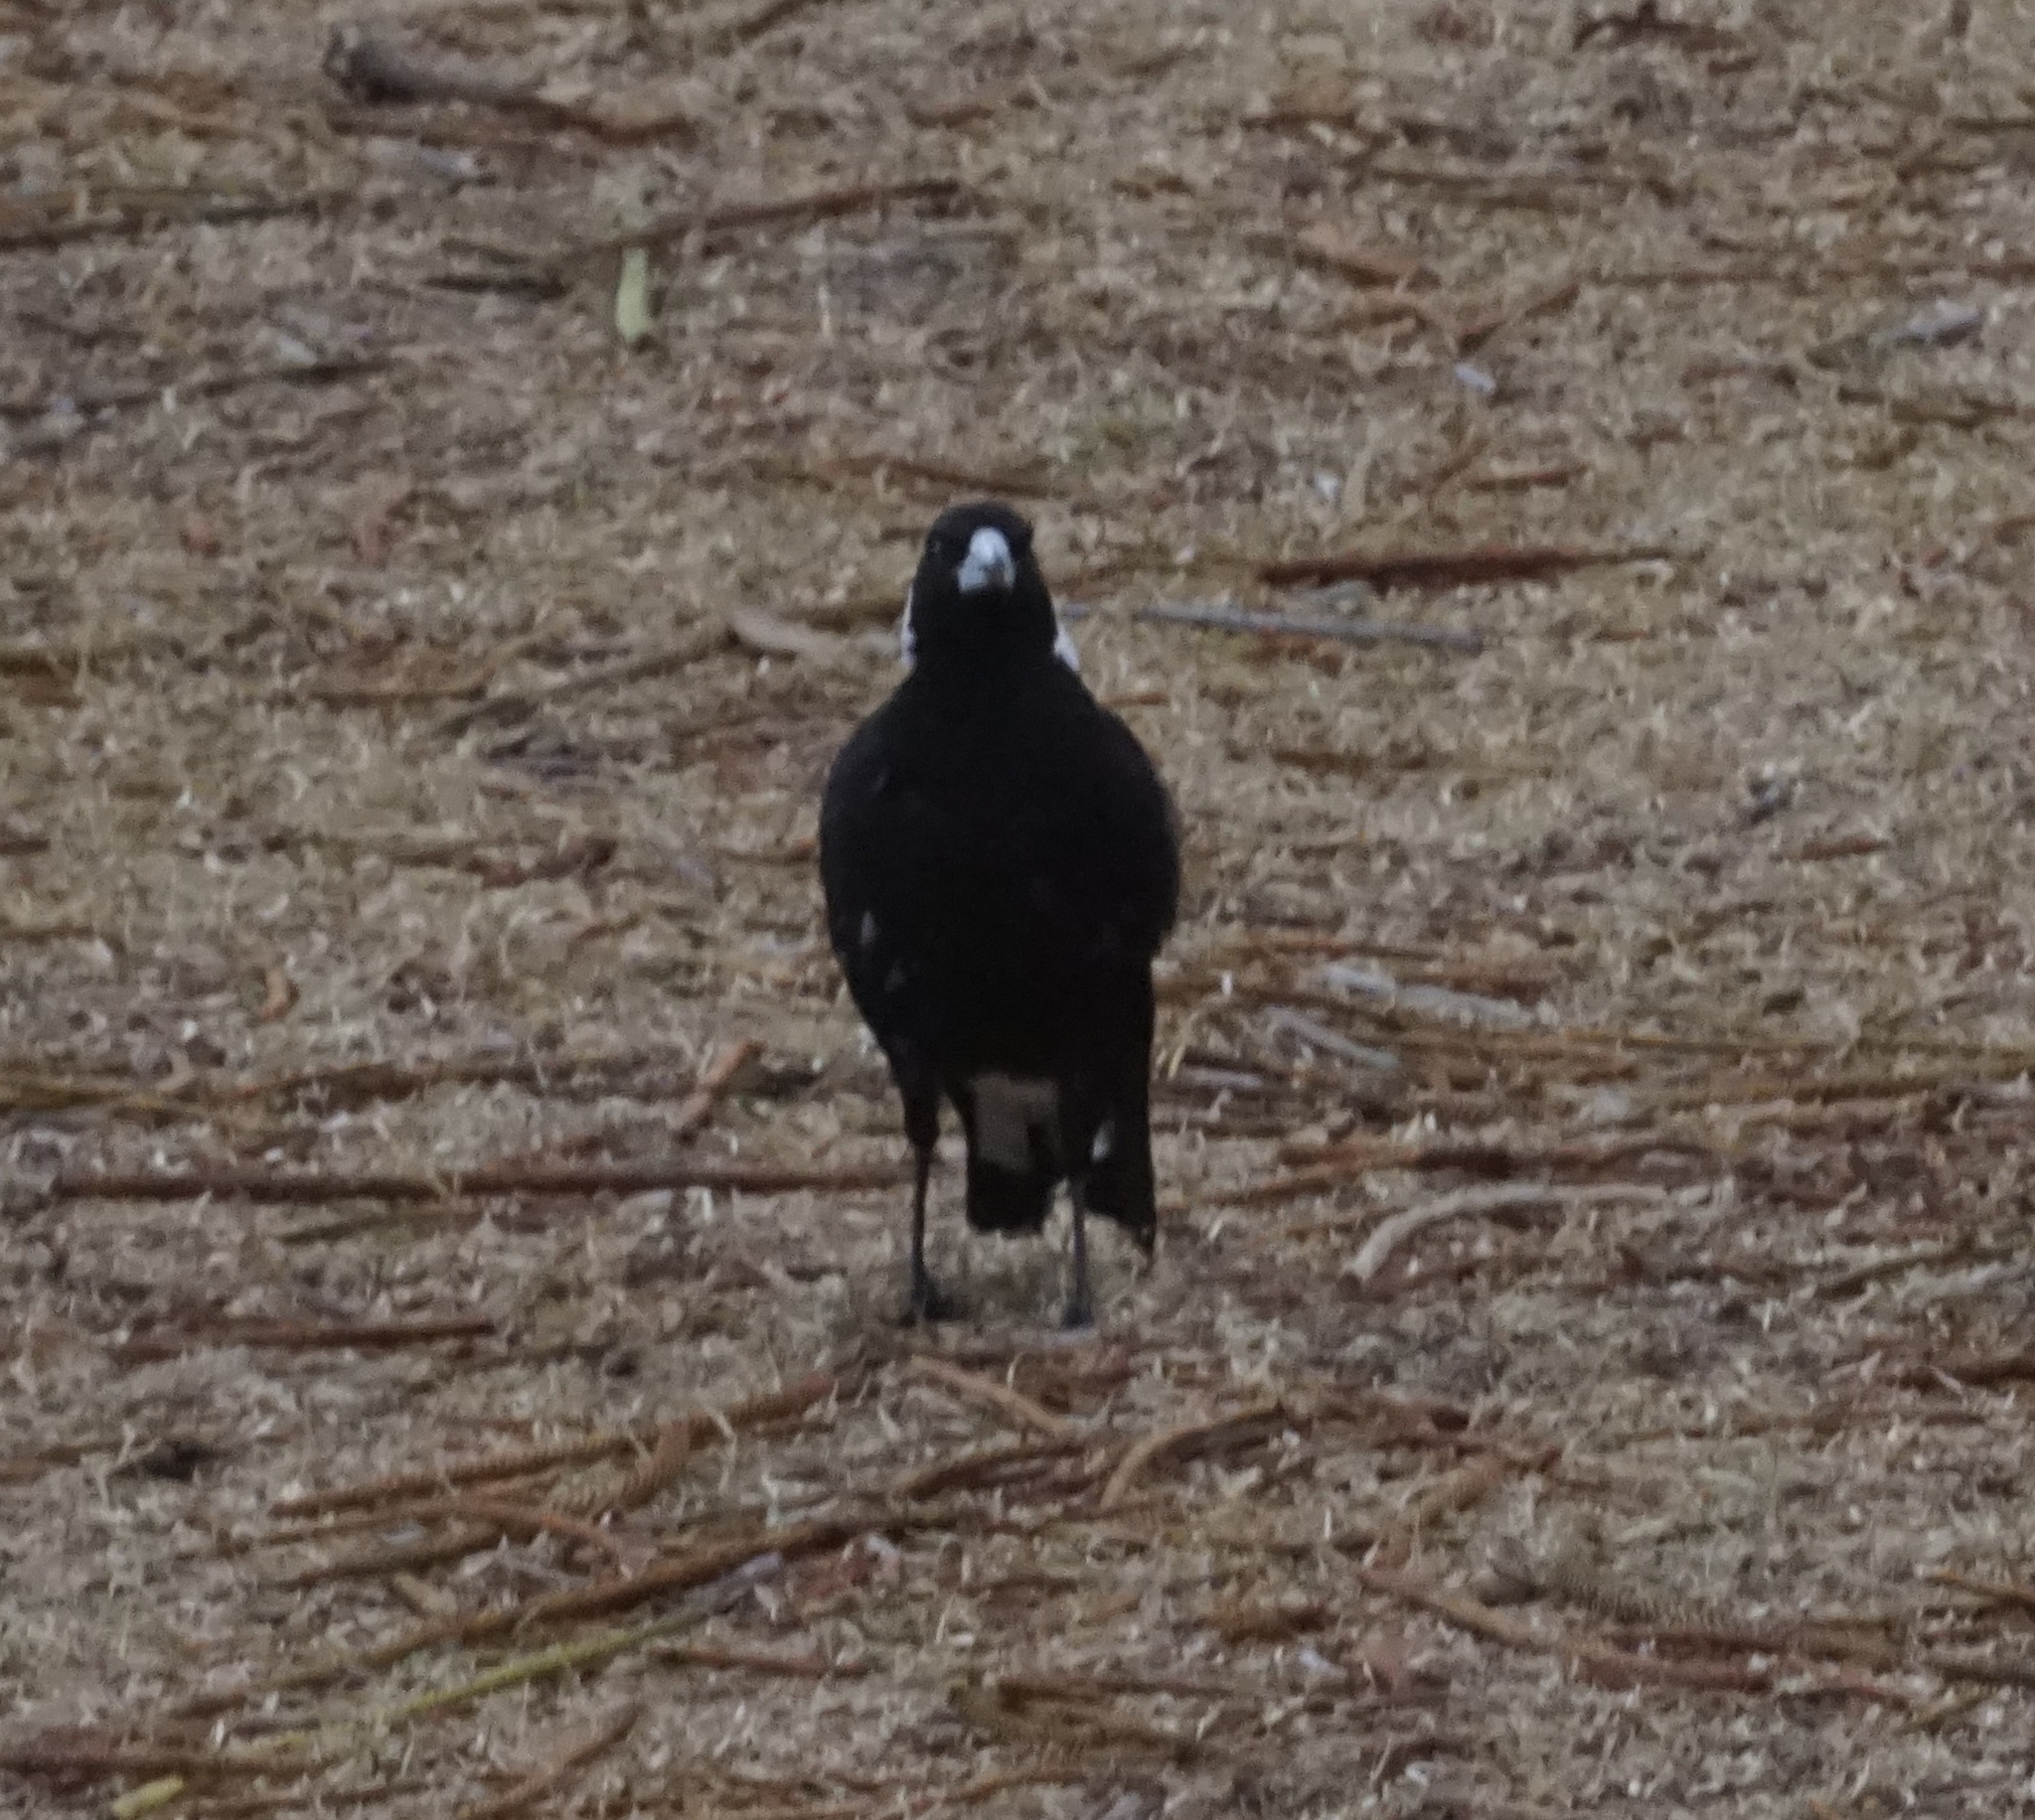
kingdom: Animalia
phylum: Chordata
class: Aves
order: Passeriformes
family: Cracticidae
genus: Gymnorhina
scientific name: Gymnorhina tibicen
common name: Australian magpie
